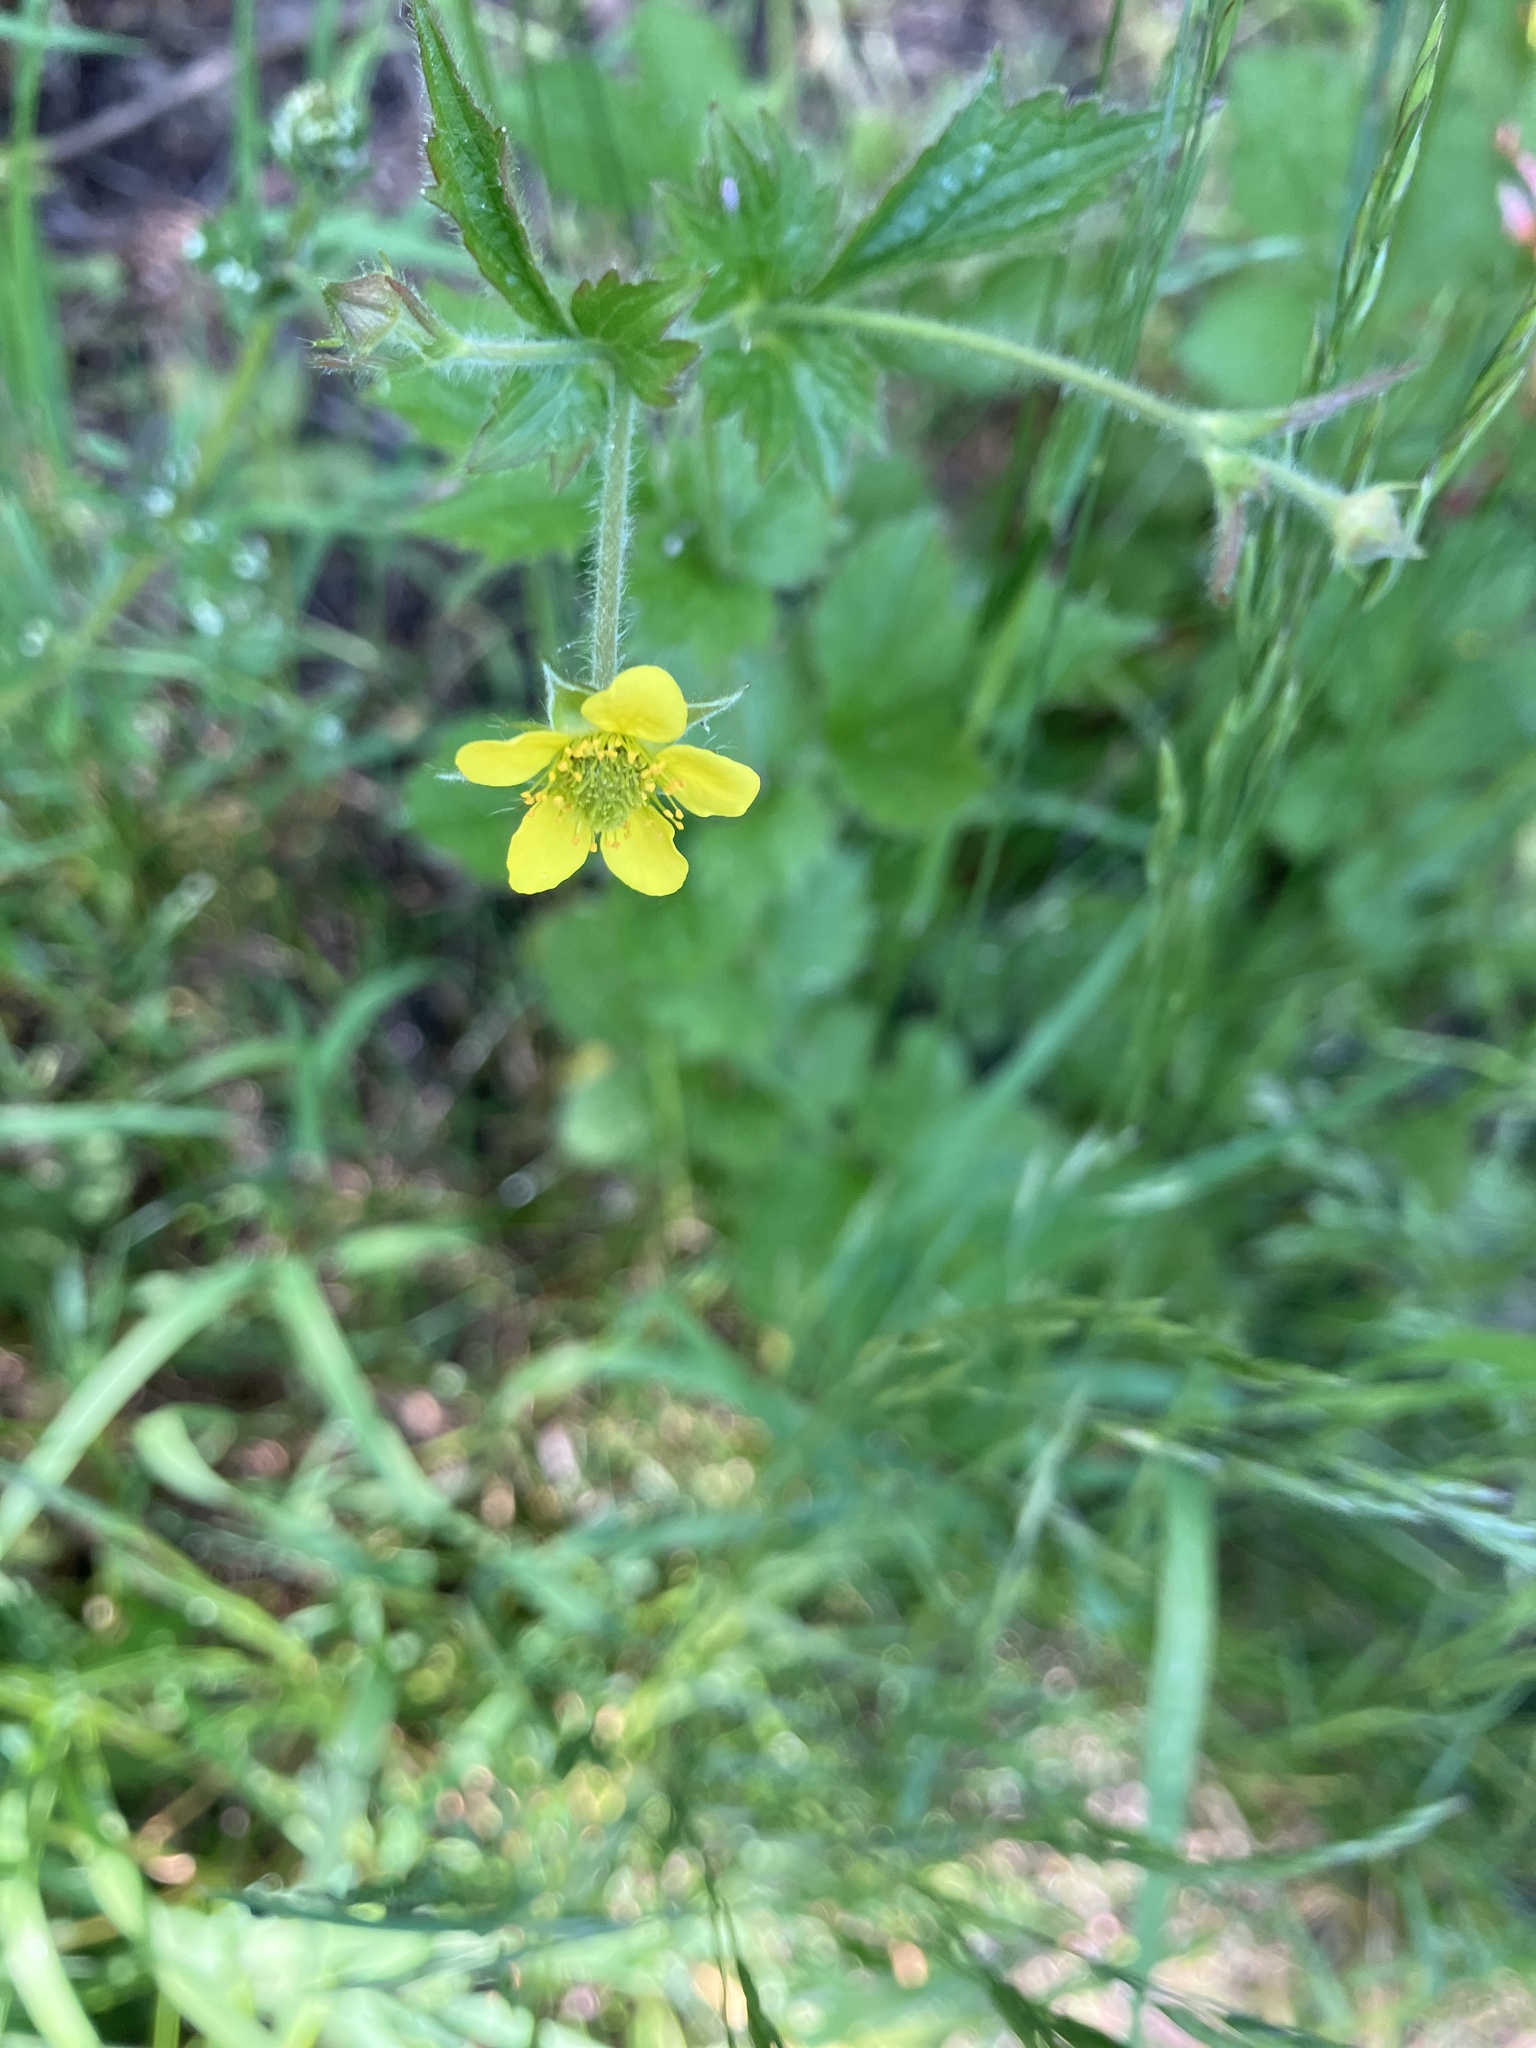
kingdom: Plantae
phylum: Tracheophyta
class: Magnoliopsida
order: Rosales
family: Rosaceae
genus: Geum
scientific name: Geum urbanum
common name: Wood avens
